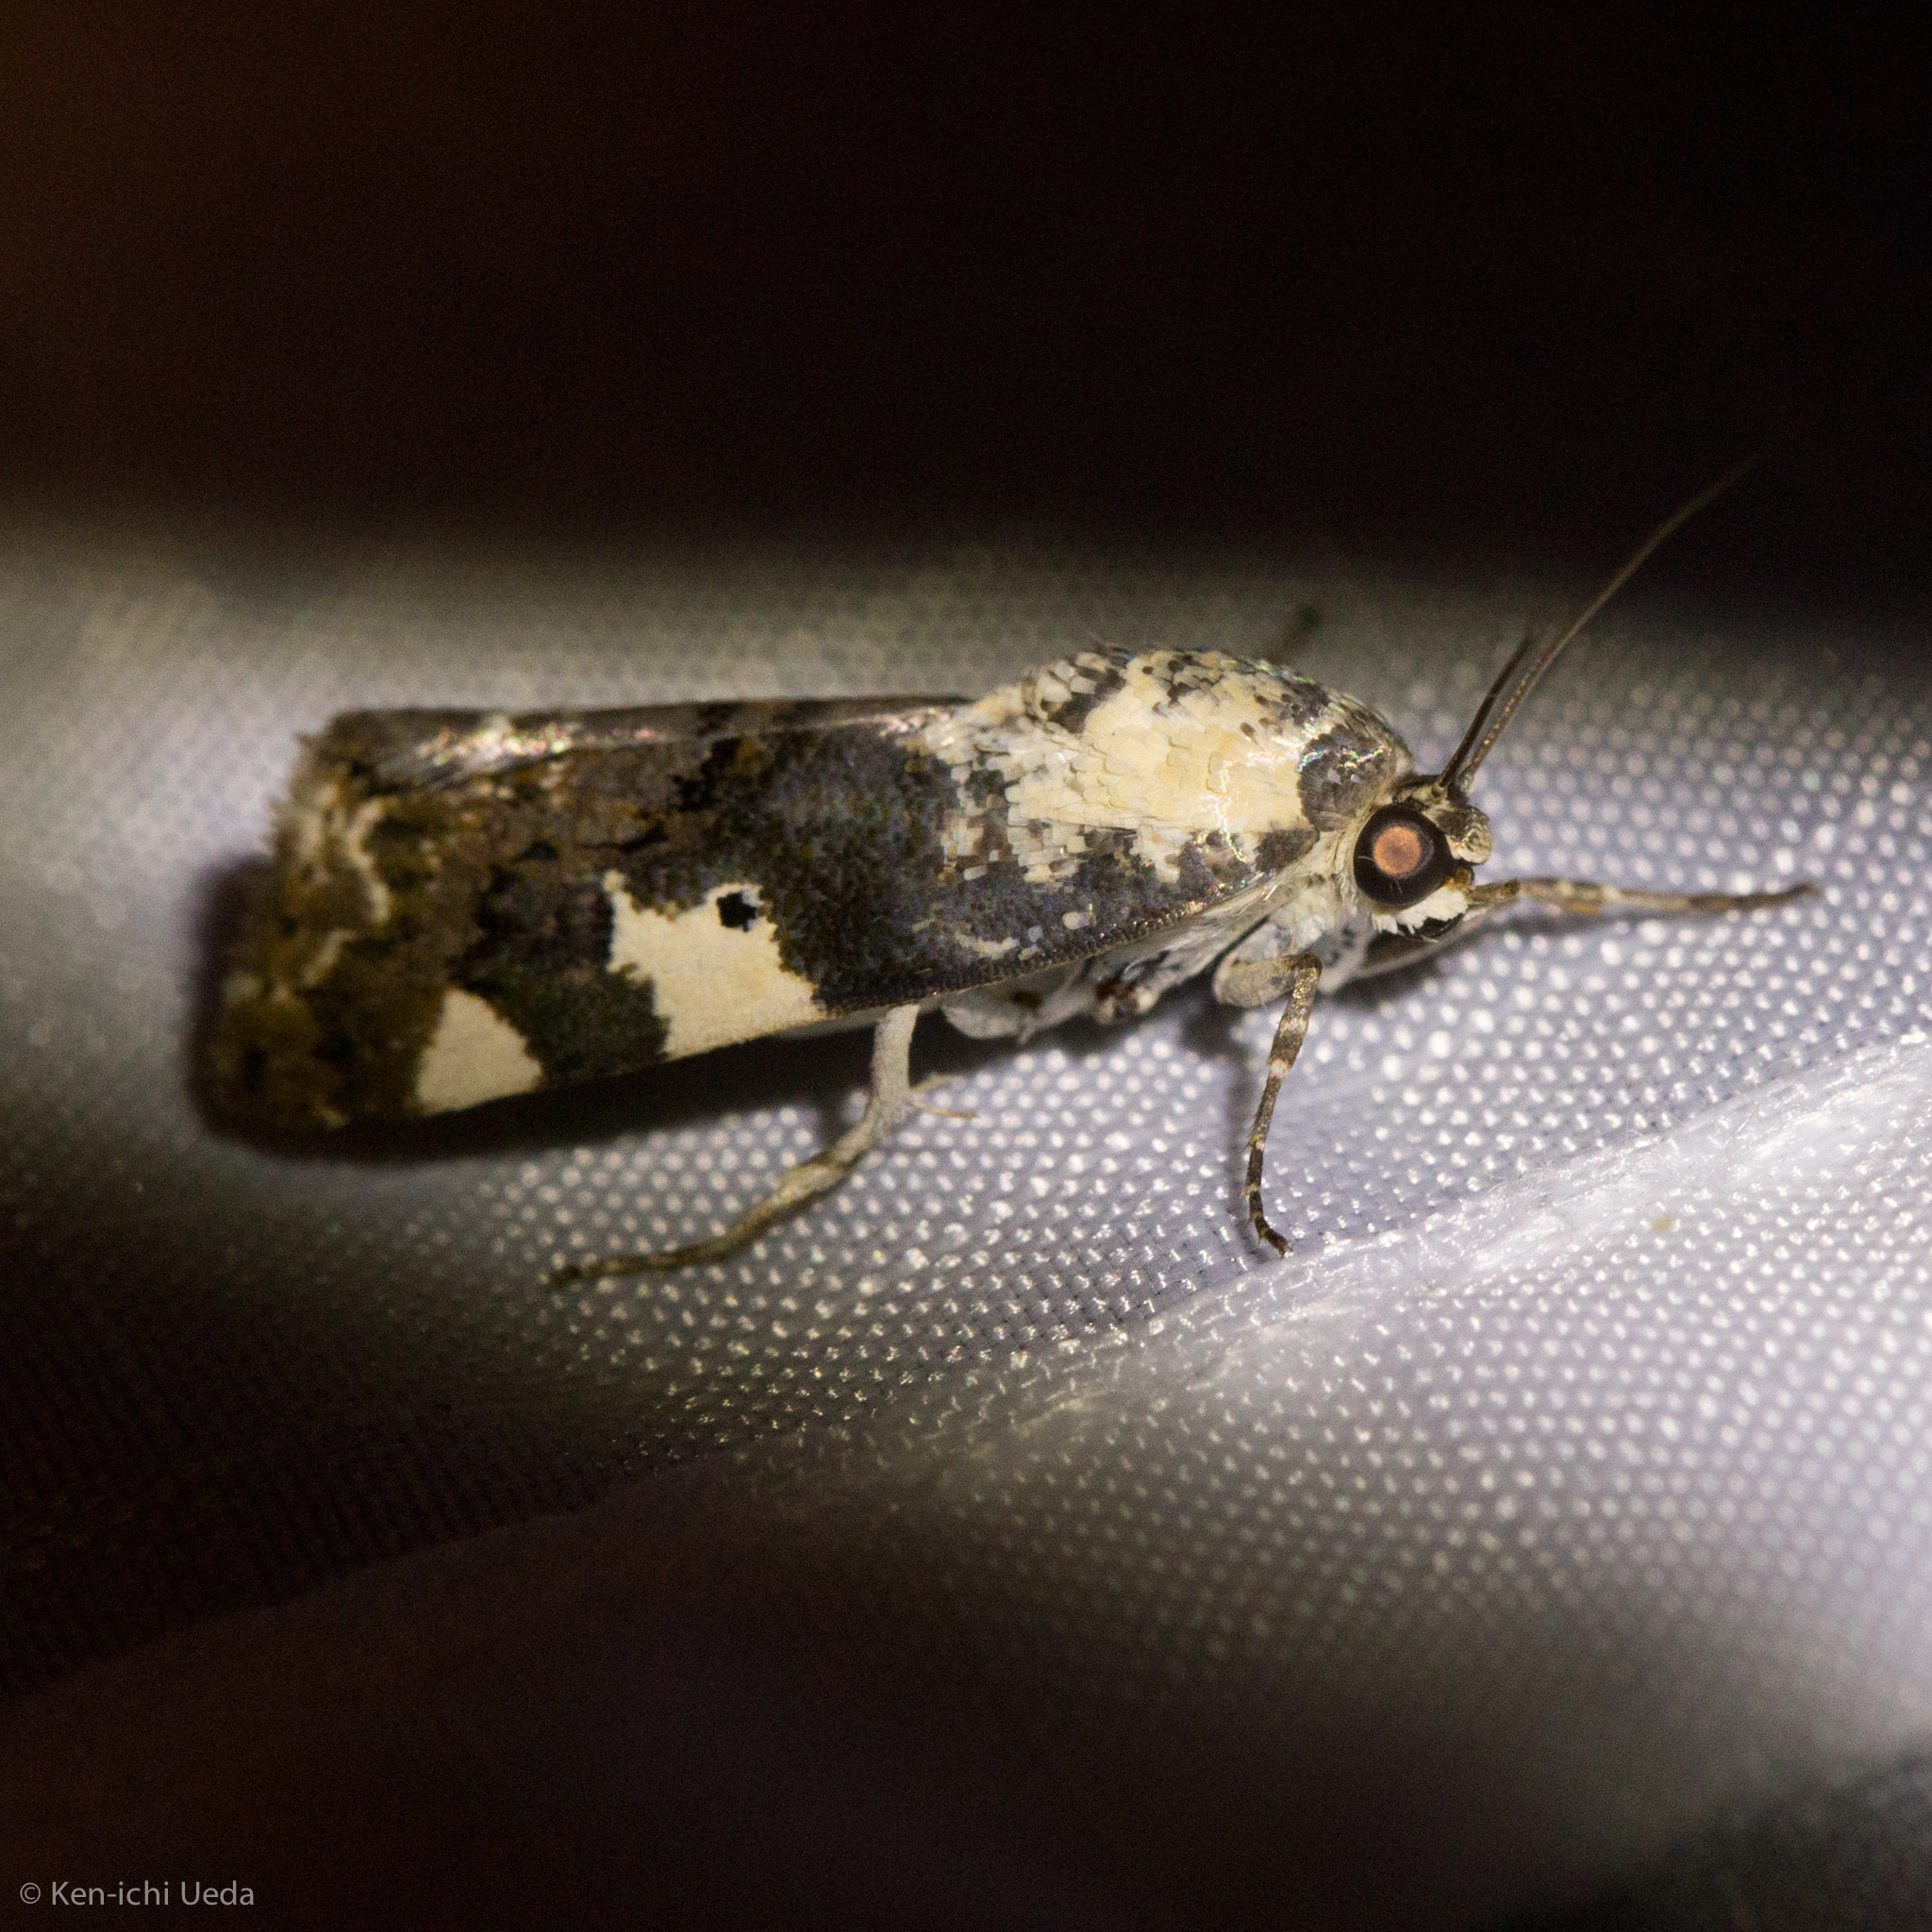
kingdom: Animalia
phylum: Arthropoda
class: Insecta
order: Lepidoptera
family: Noctuidae
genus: Acontia
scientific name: Acontia aprica
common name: Nun
